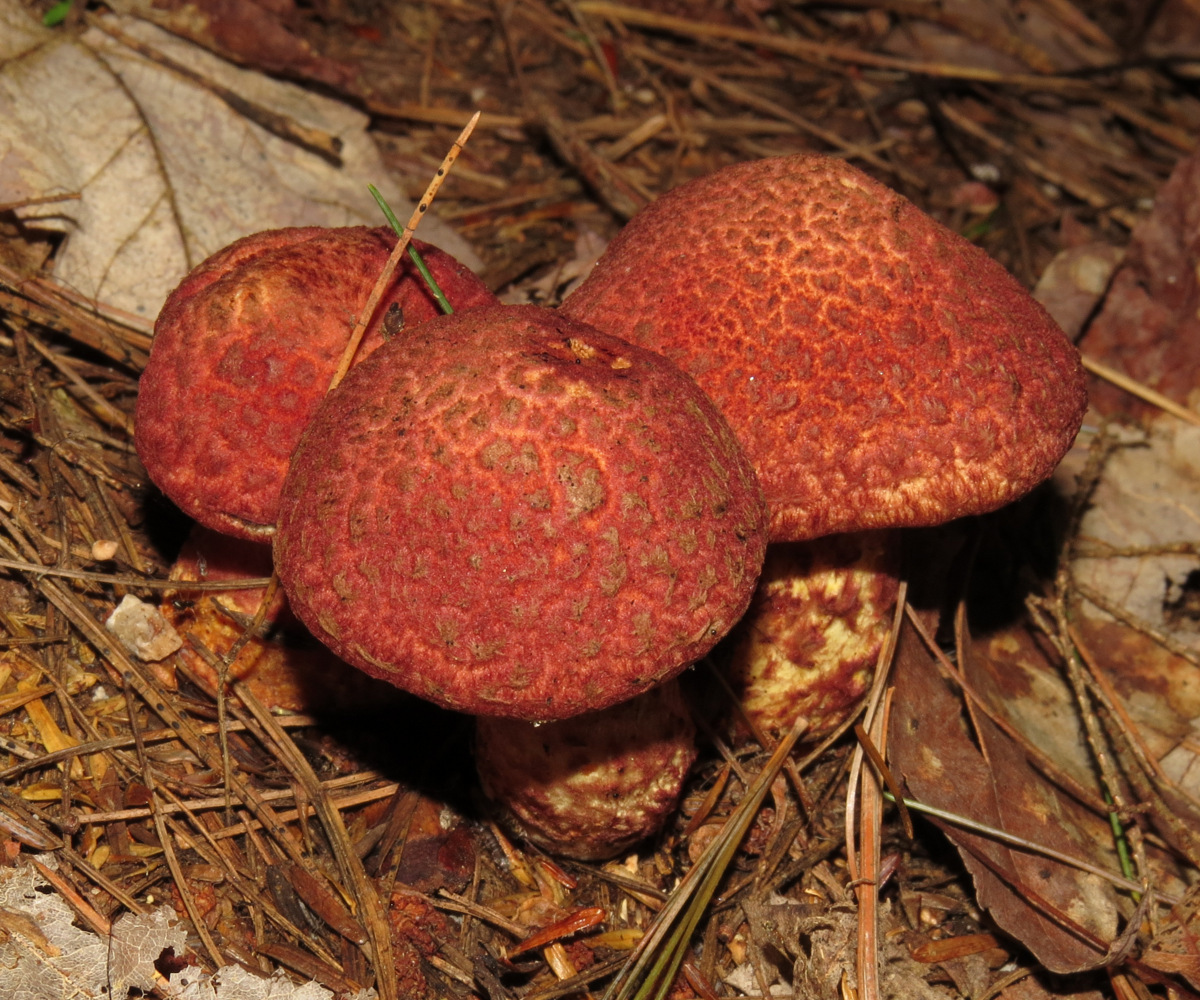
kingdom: Fungi
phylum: Basidiomycota
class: Agaricomycetes
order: Boletales
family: Suillaceae
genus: Suillus
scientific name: Suillus spraguei
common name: Painted suillus
